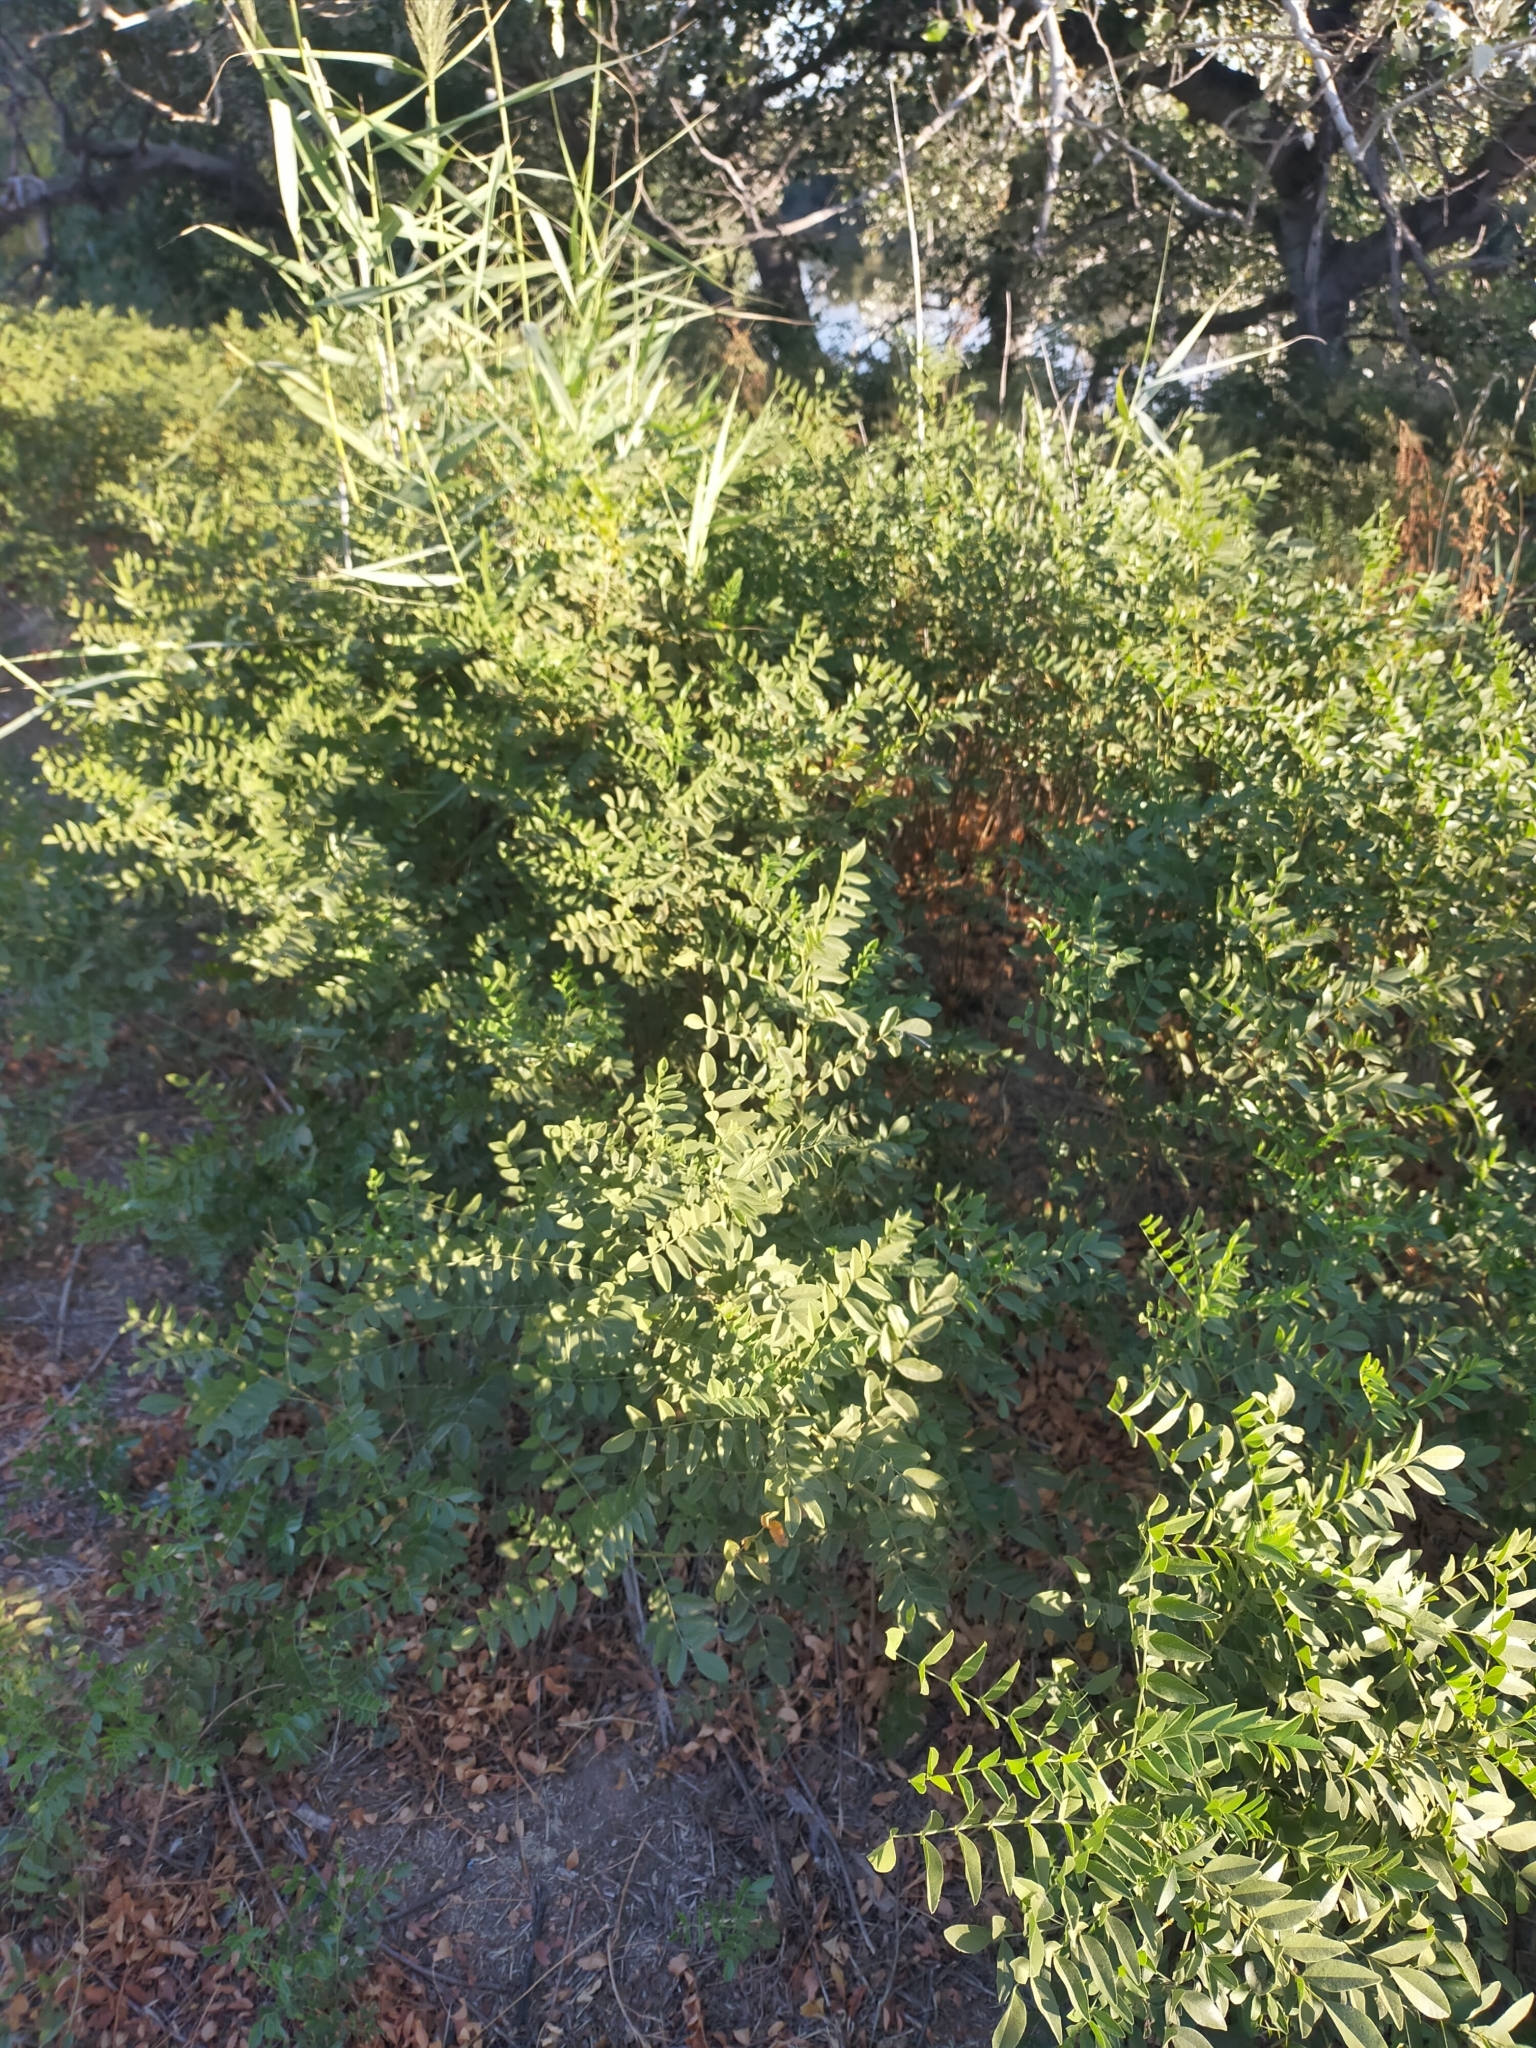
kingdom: Plantae
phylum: Tracheophyta
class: Magnoliopsida
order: Fabales
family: Fabaceae
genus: Glycyrrhiza
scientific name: Glycyrrhiza glabra
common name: Liquorice
